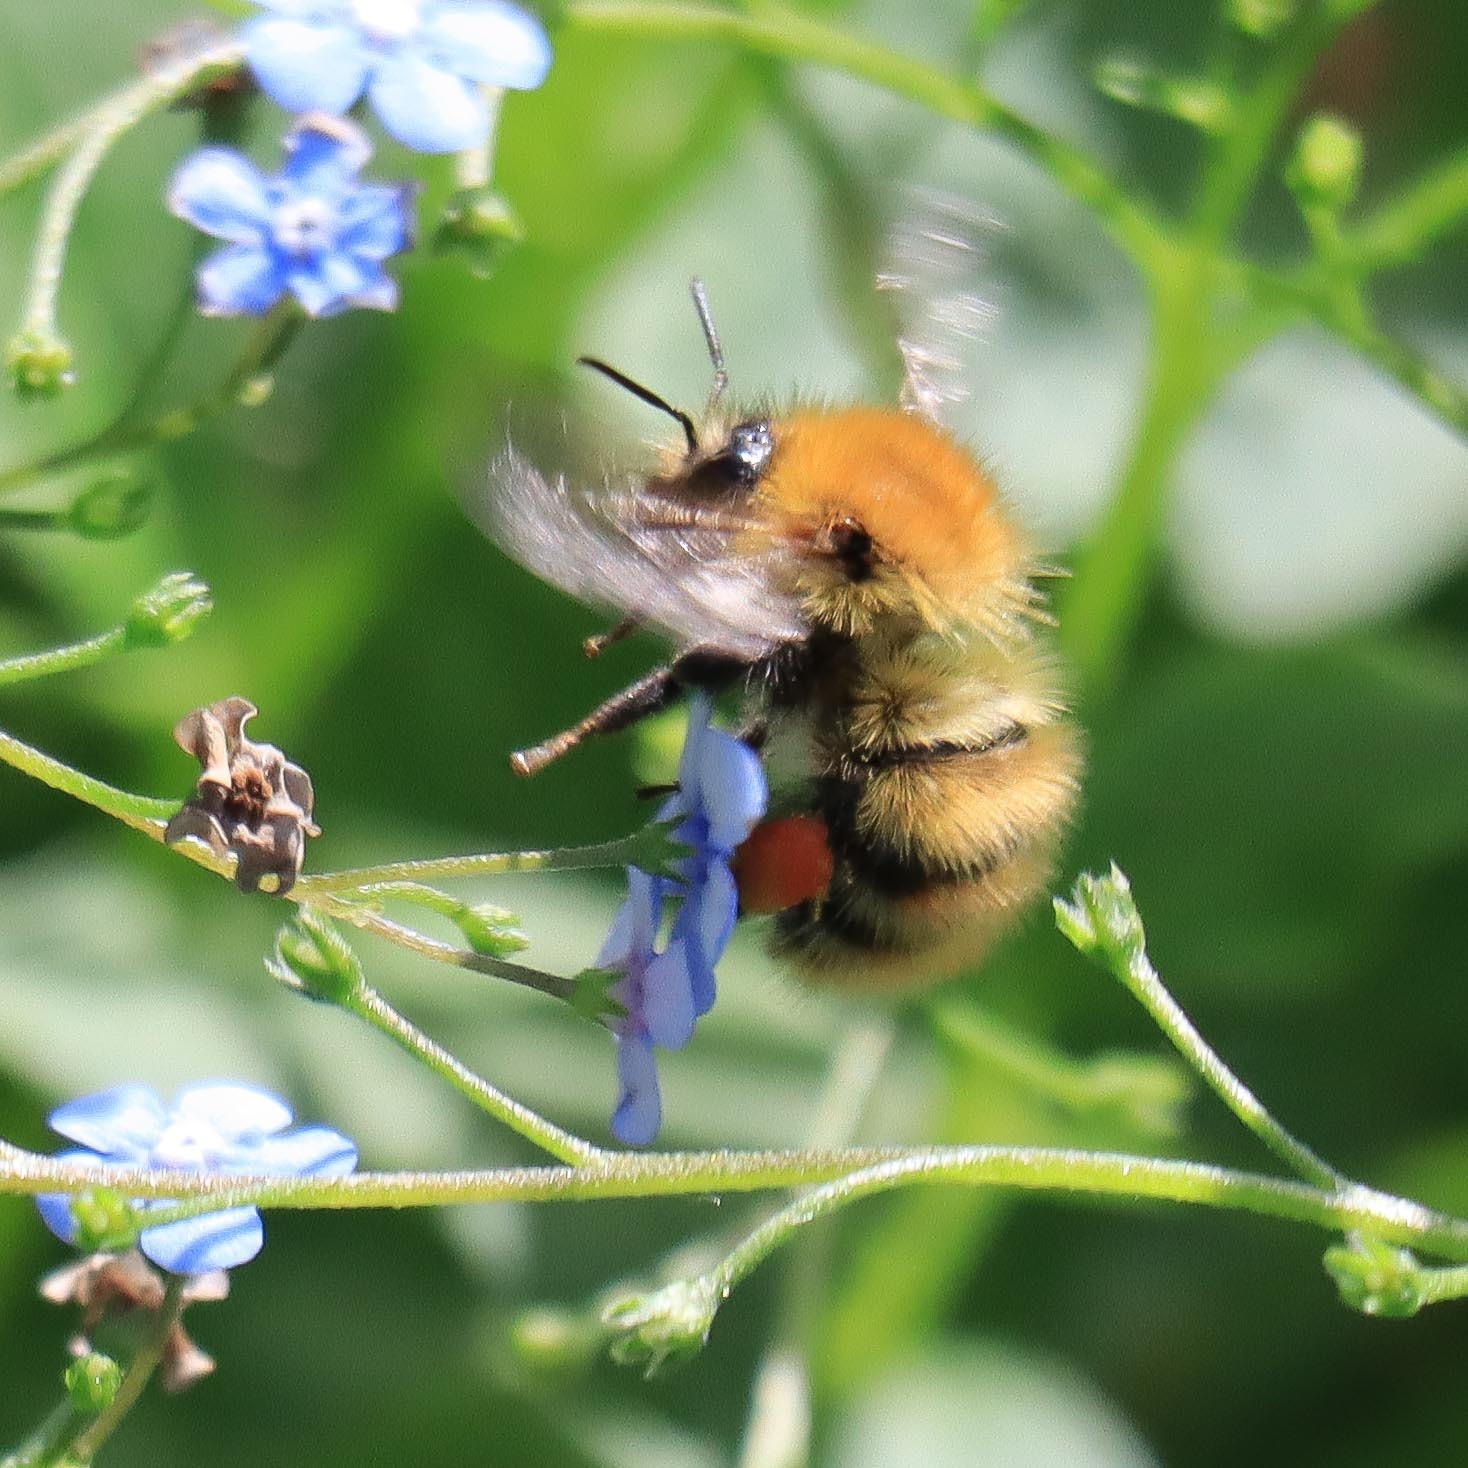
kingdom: Animalia
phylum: Arthropoda
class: Insecta
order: Hymenoptera
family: Apidae
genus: Bombus
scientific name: Bombus pascuorum
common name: Common carder bee
